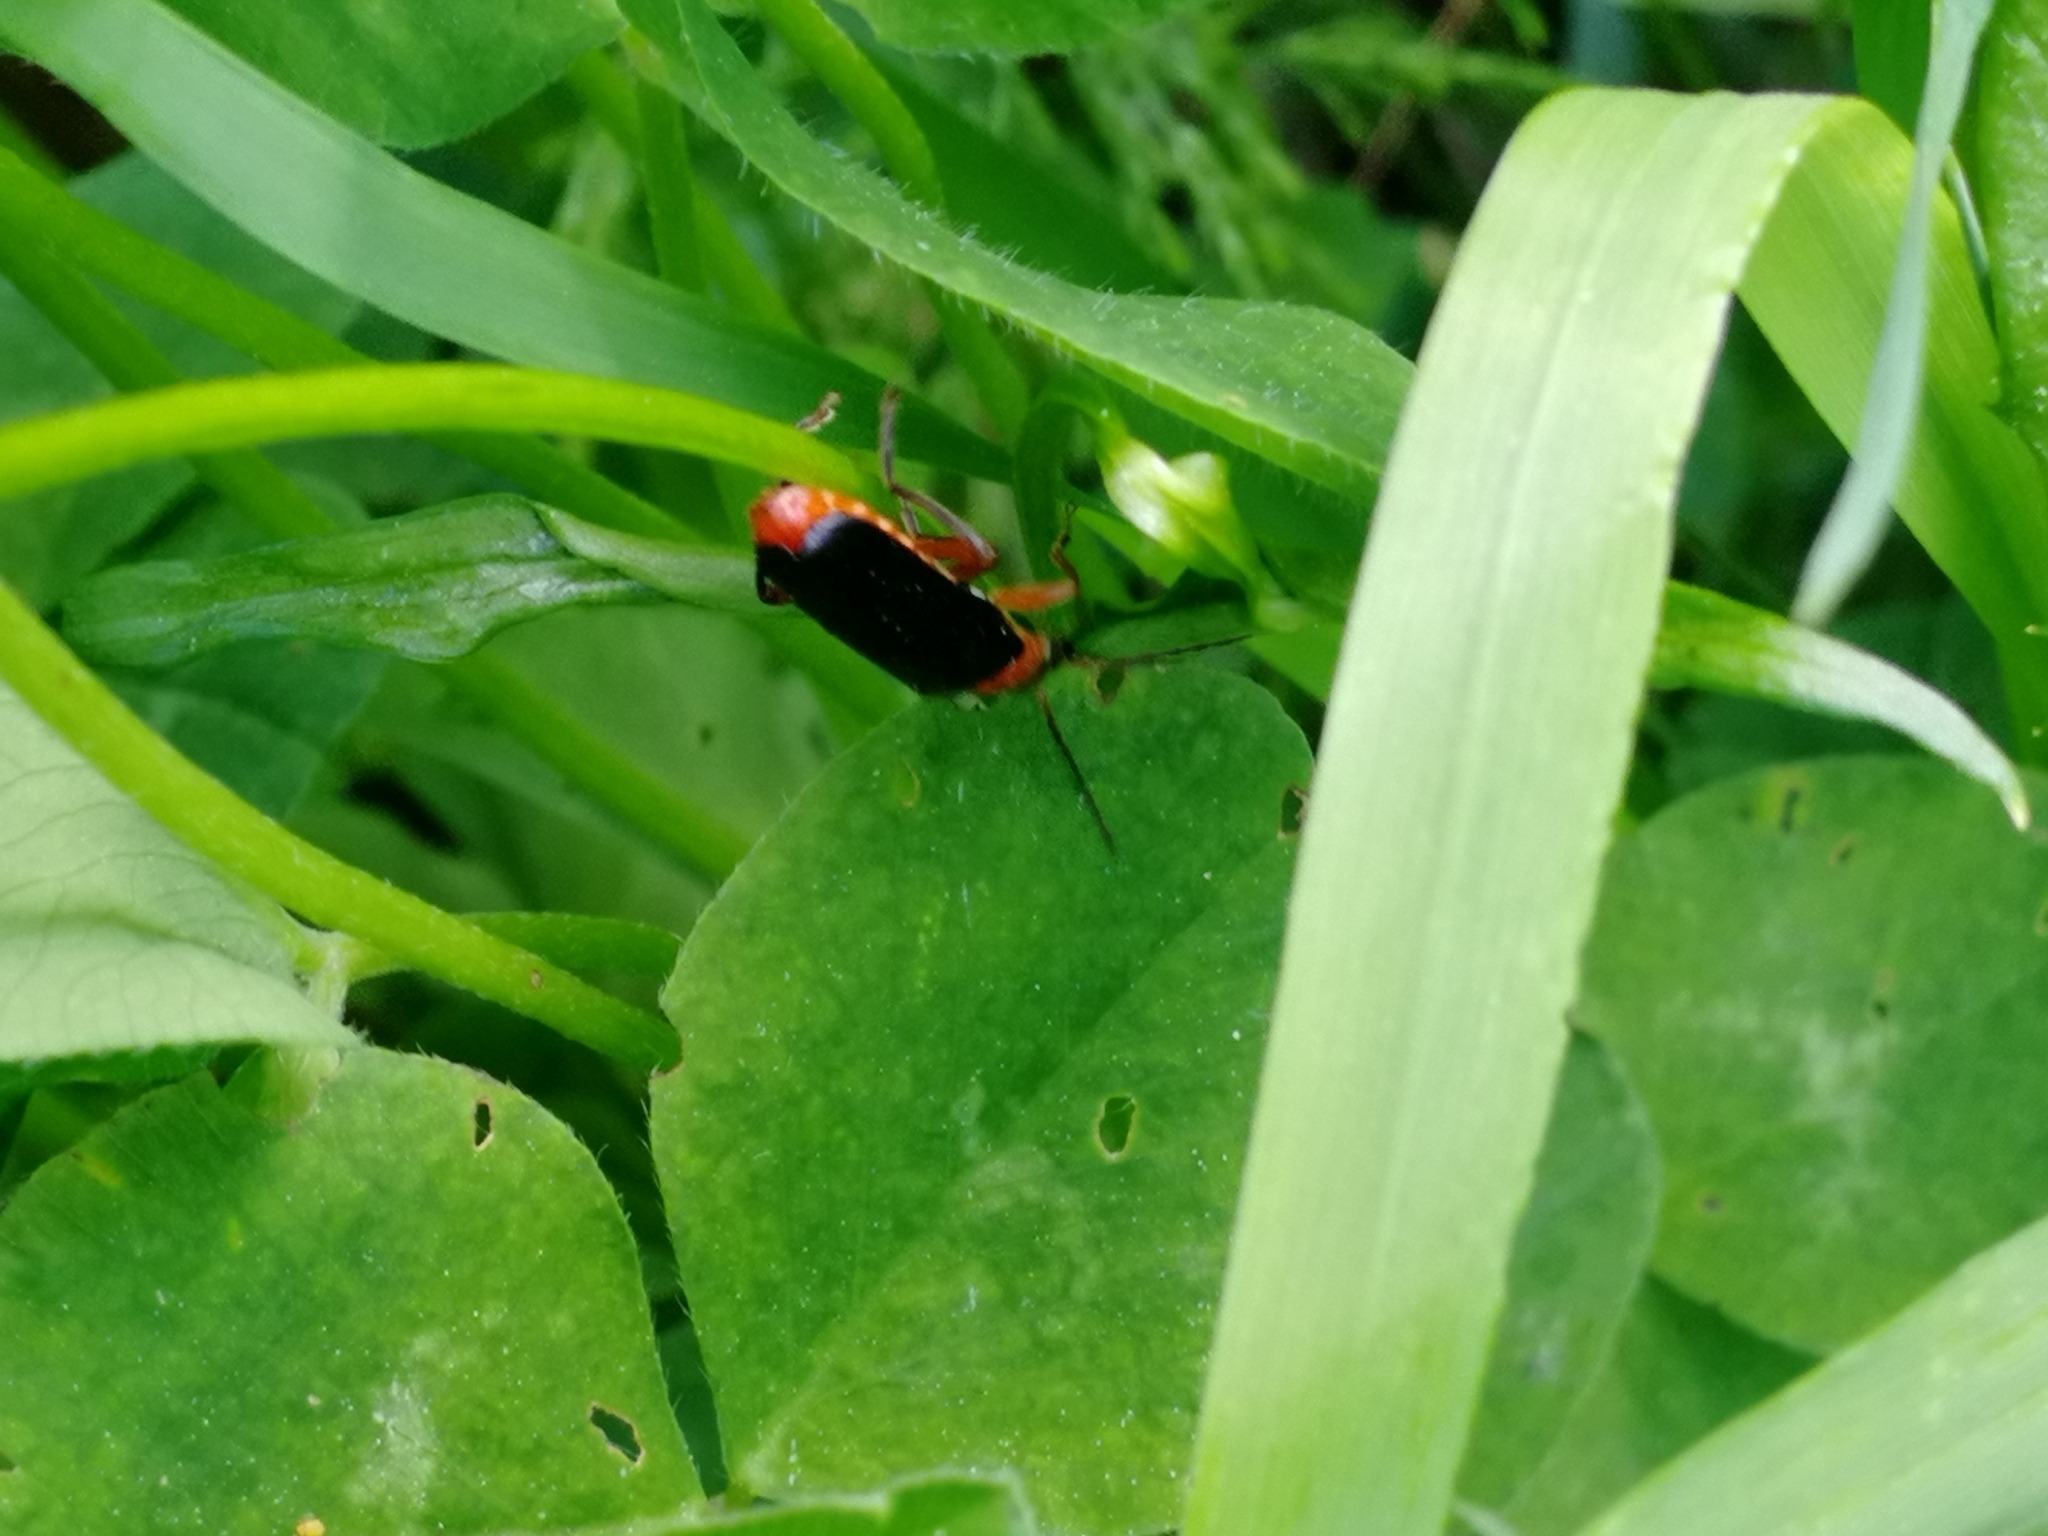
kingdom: Animalia
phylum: Arthropoda
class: Insecta
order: Coleoptera
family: Cantharidae
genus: Cantharis
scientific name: Cantharis pellucida
